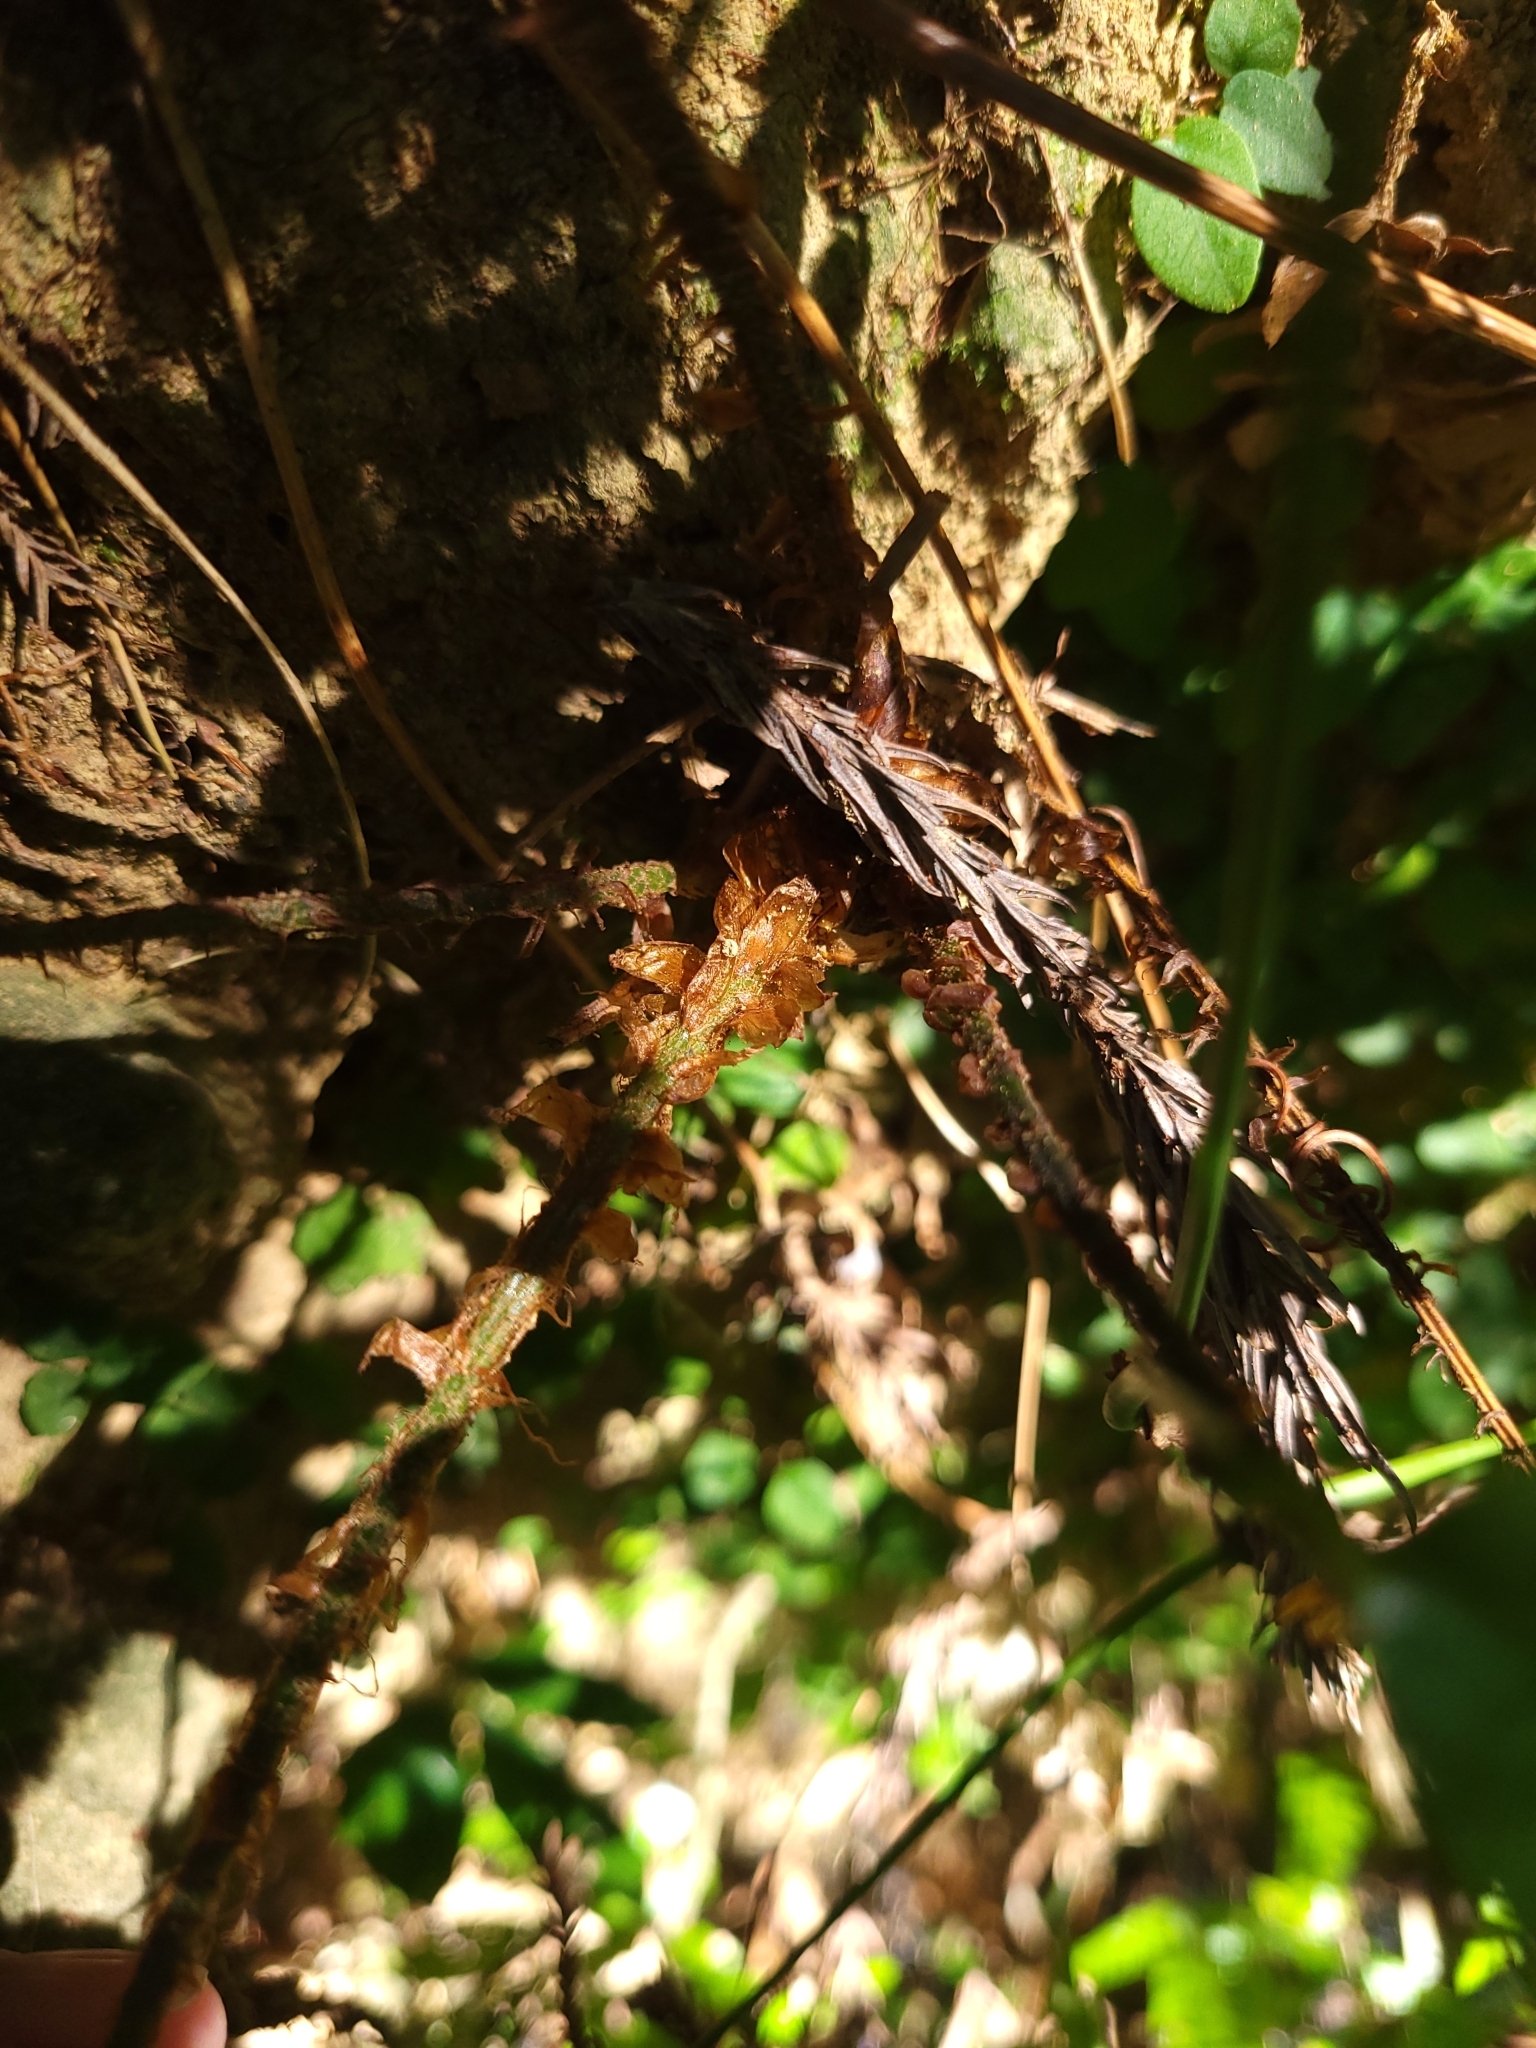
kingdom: Plantae
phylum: Tracheophyta
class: Polypodiopsida
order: Polypodiales
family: Dryopteridaceae
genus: Polystichum
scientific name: Polystichum biaristatum
